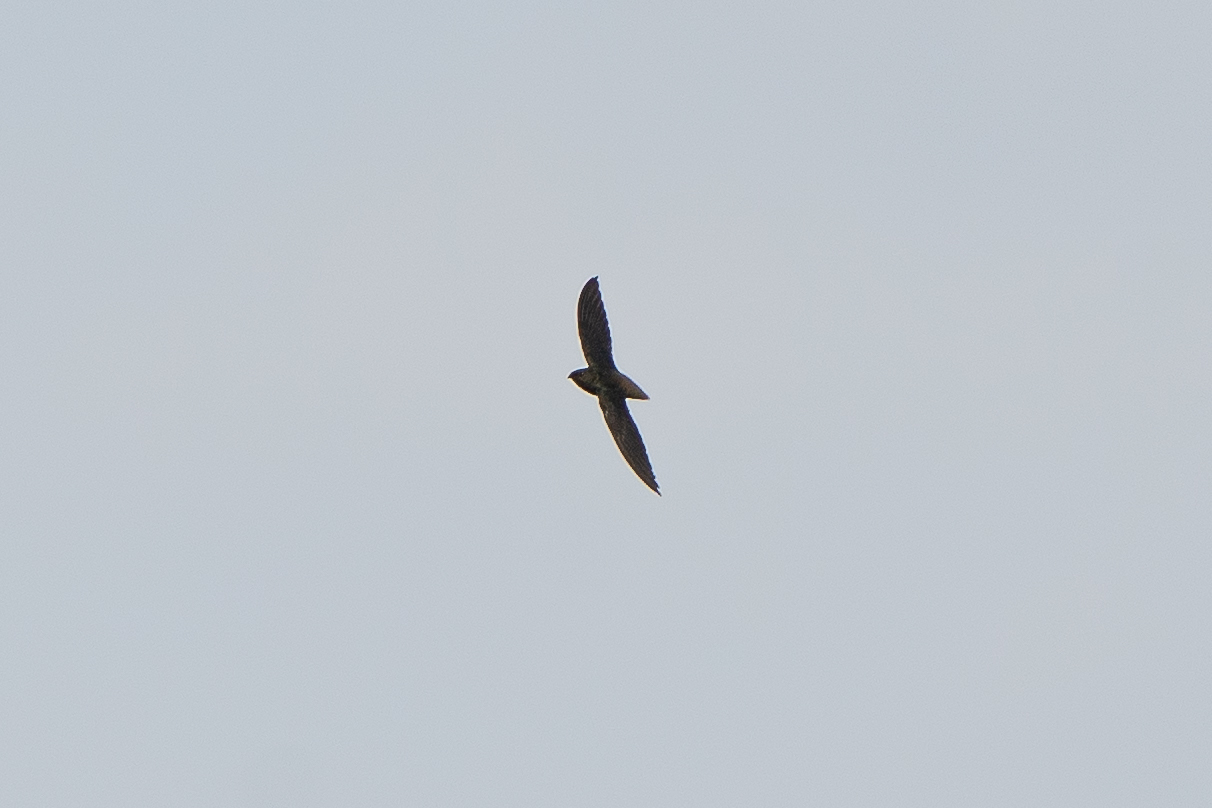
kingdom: Animalia
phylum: Chordata
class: Aves
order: Apodiformes
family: Apodidae
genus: Chaetura
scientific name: Chaetura brachyura
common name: Short-tailed swift
